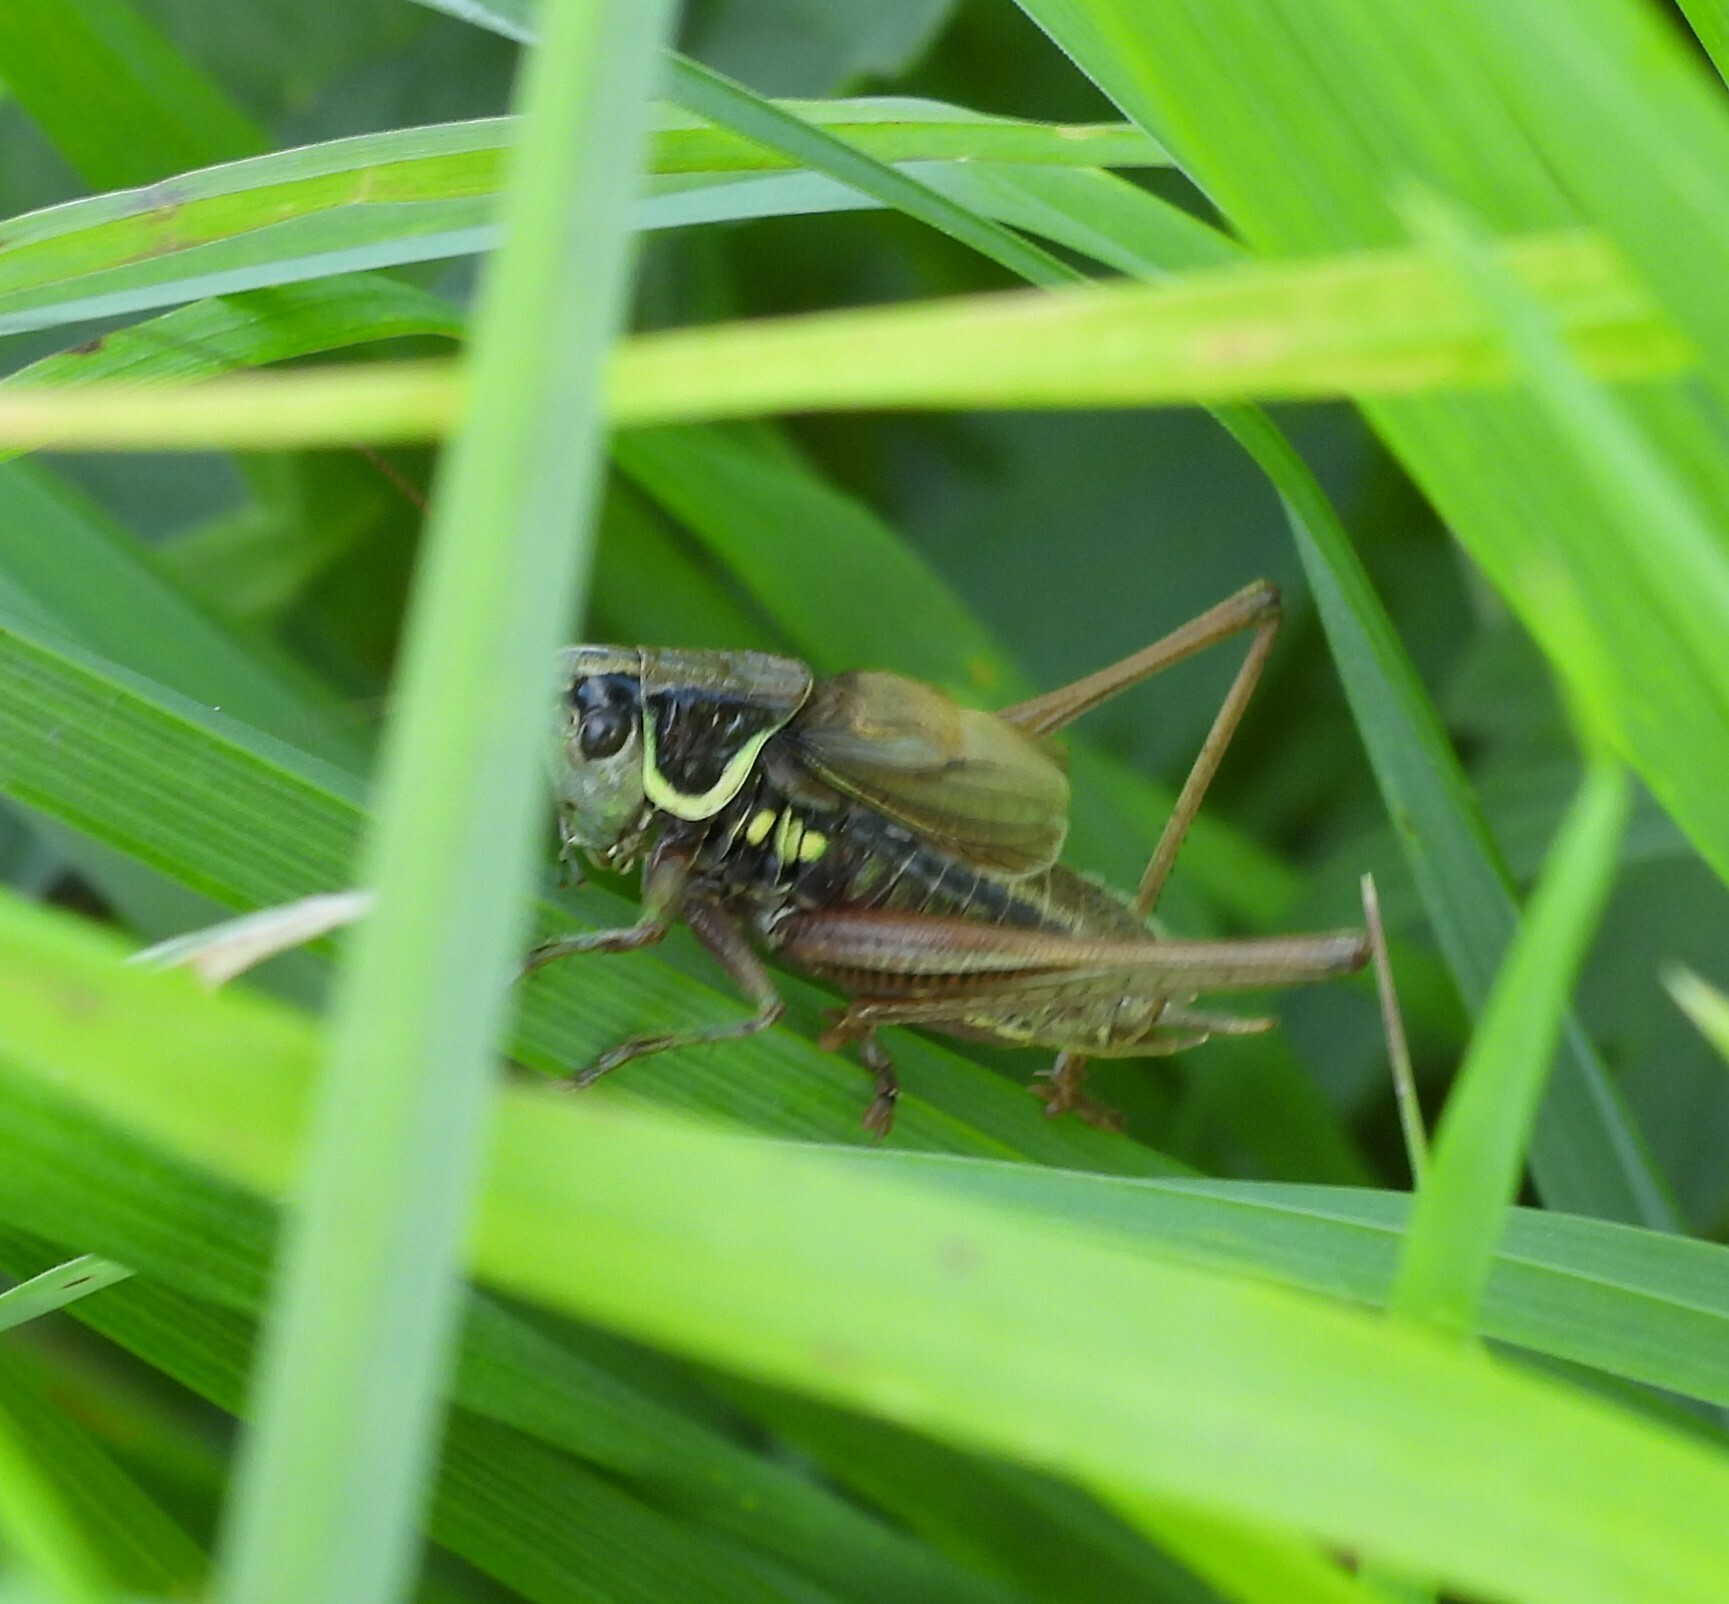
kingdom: Animalia
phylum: Arthropoda
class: Insecta
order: Orthoptera
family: Tettigoniidae
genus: Roeseliana
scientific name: Roeseliana roeselii
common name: Roesel's bush cricket
